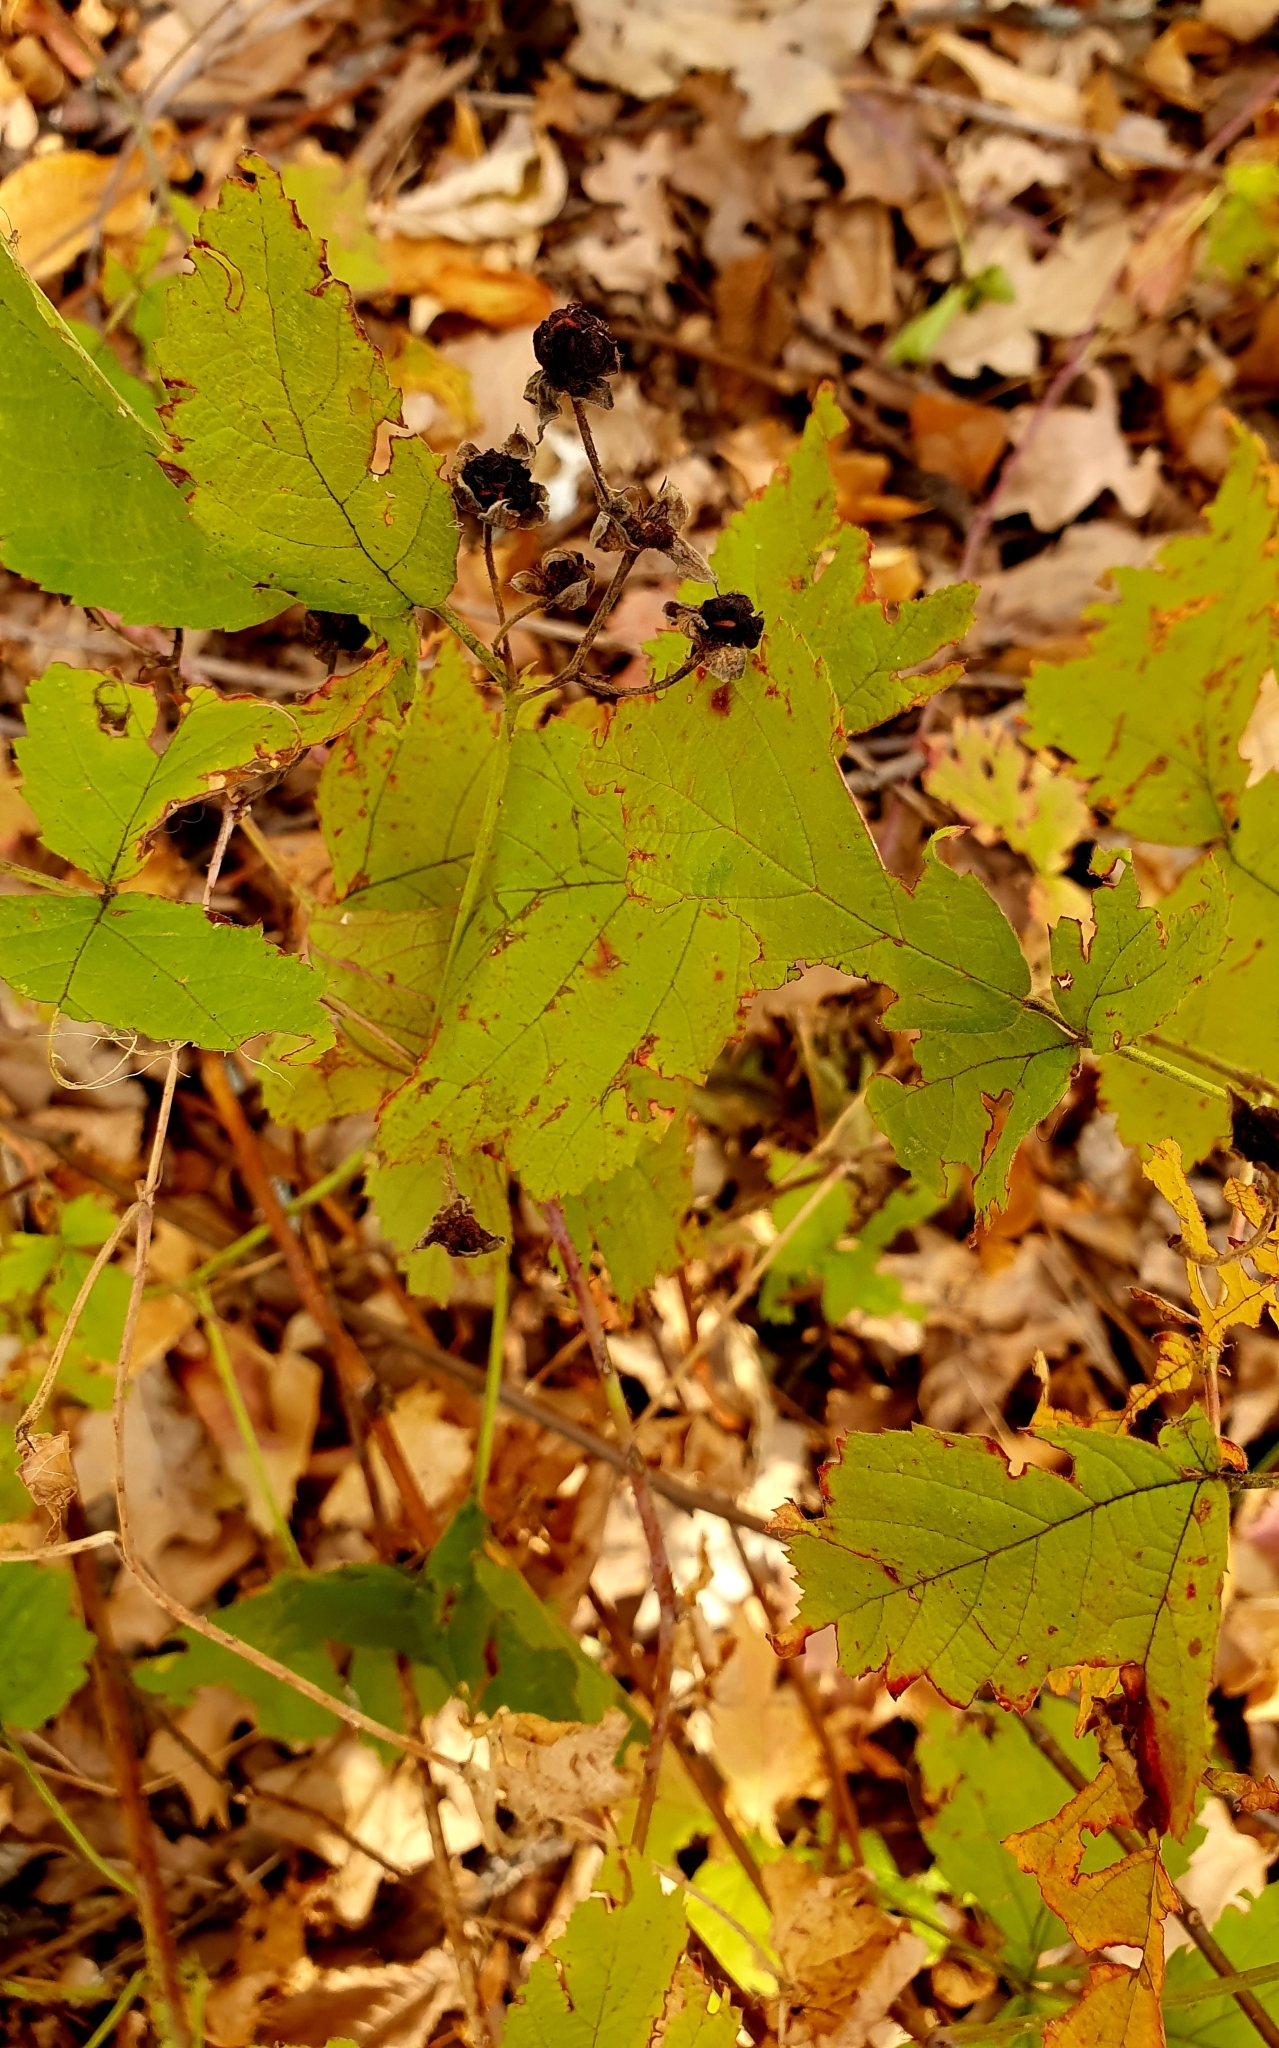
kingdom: Plantae
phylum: Tracheophyta
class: Magnoliopsida
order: Rosales
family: Rosaceae
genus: Rubus
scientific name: Rubus caesius
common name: Dewberry
